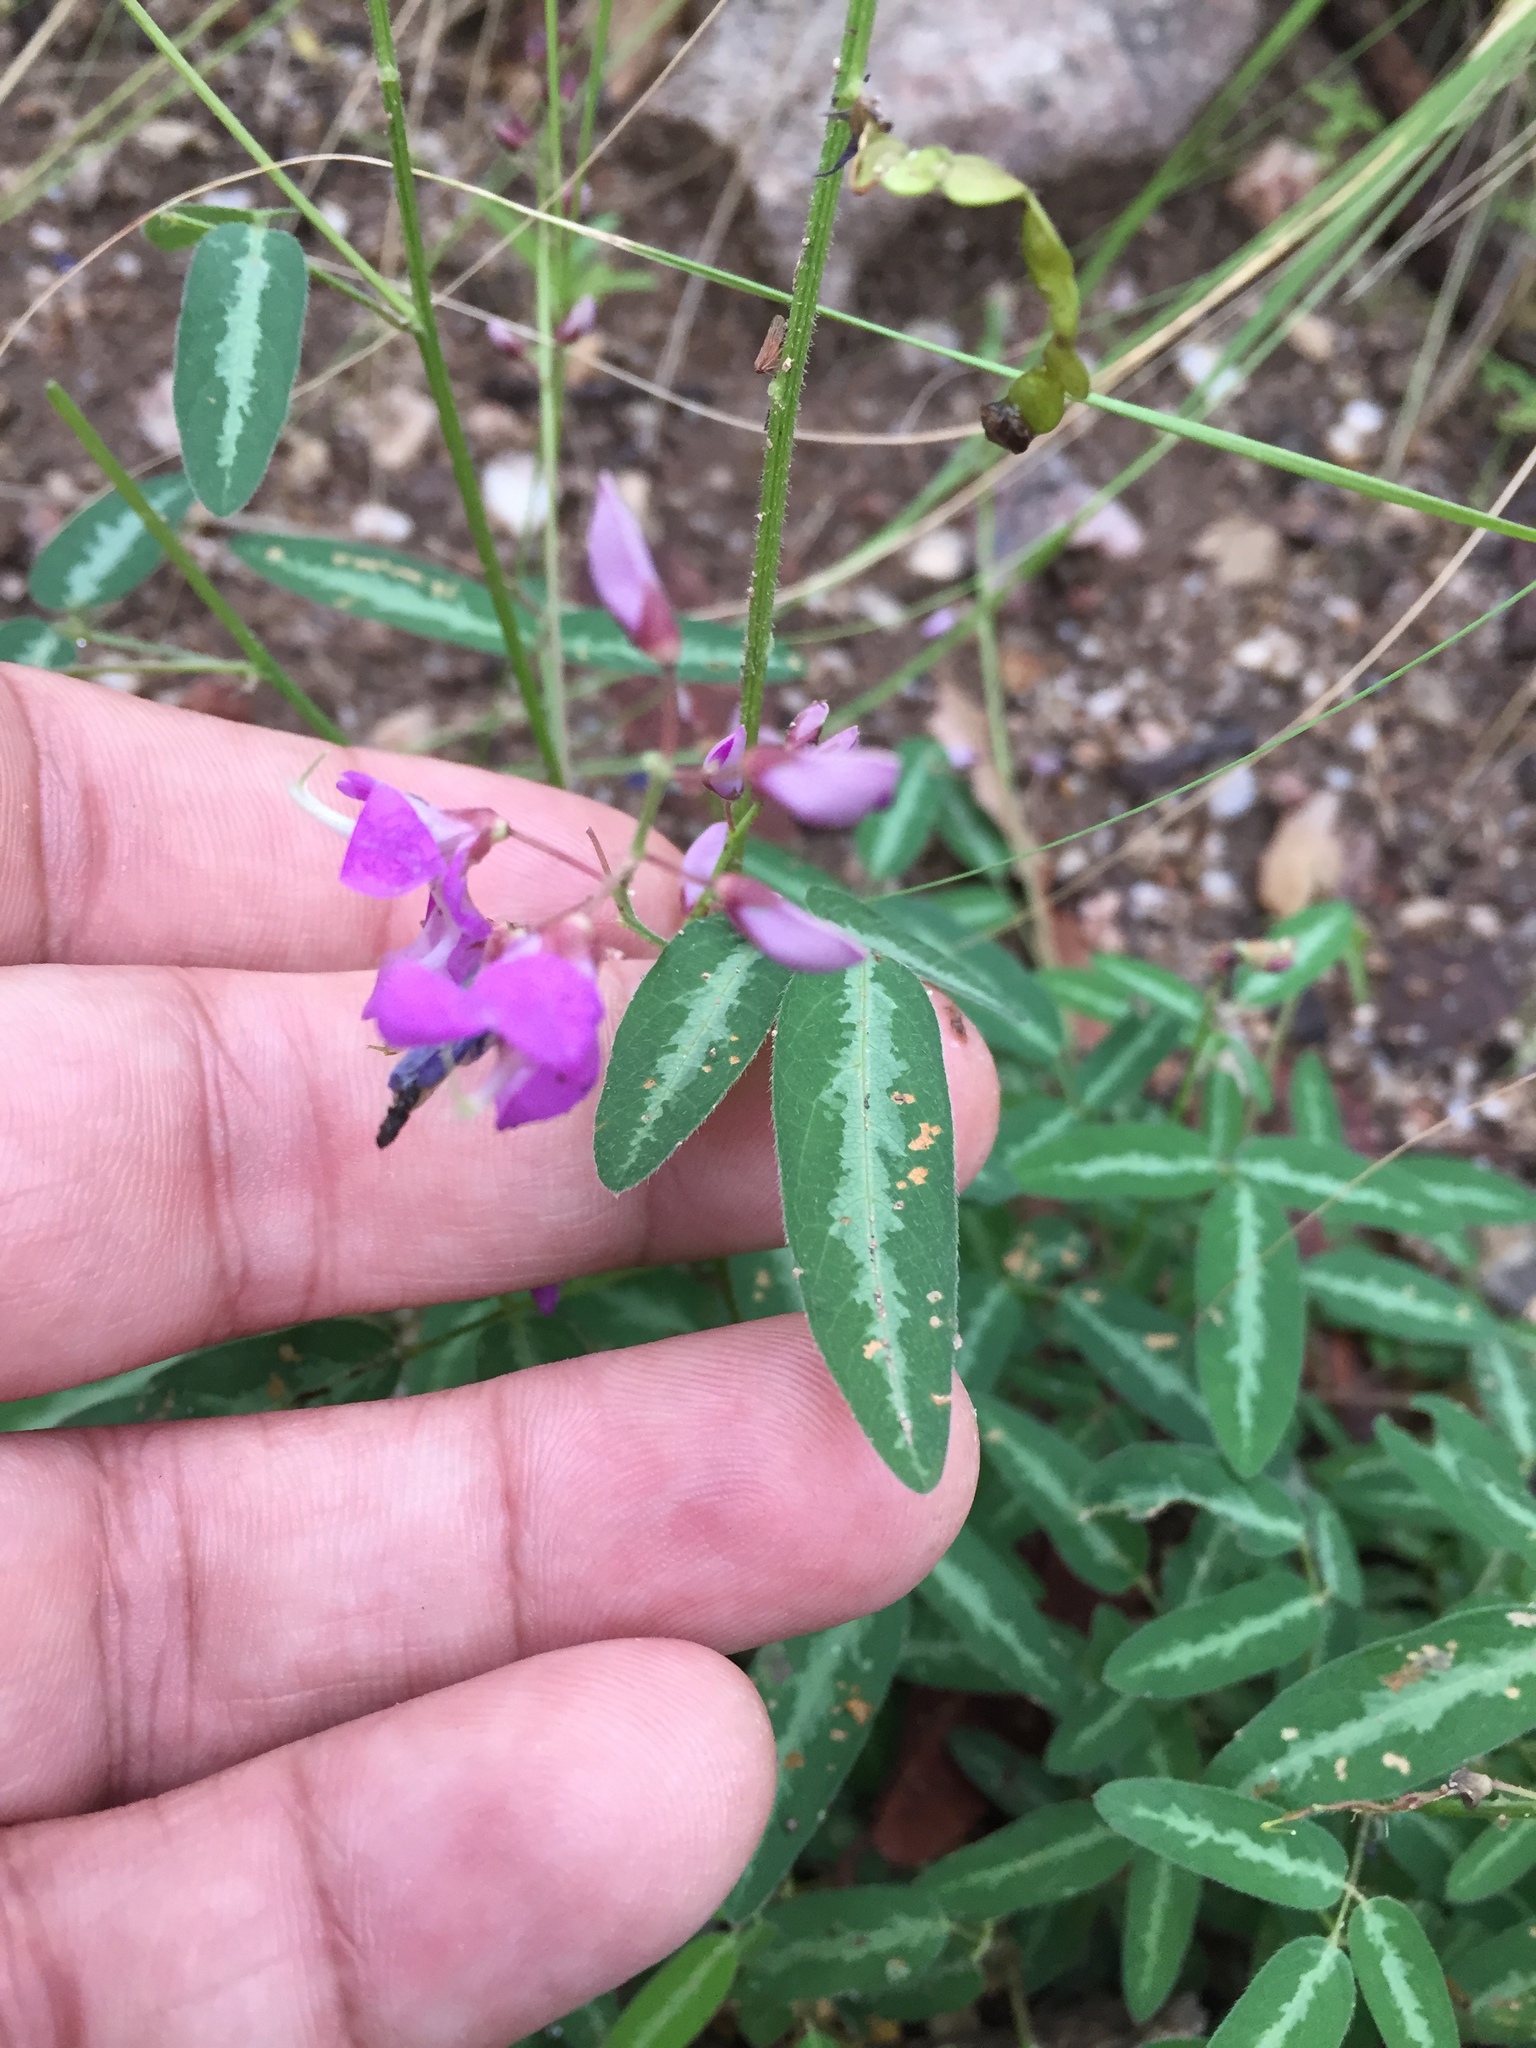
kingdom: Plantae
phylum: Tracheophyta
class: Magnoliopsida
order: Fabales
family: Fabaceae
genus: Desmodium
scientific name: Desmodium batocaulon
